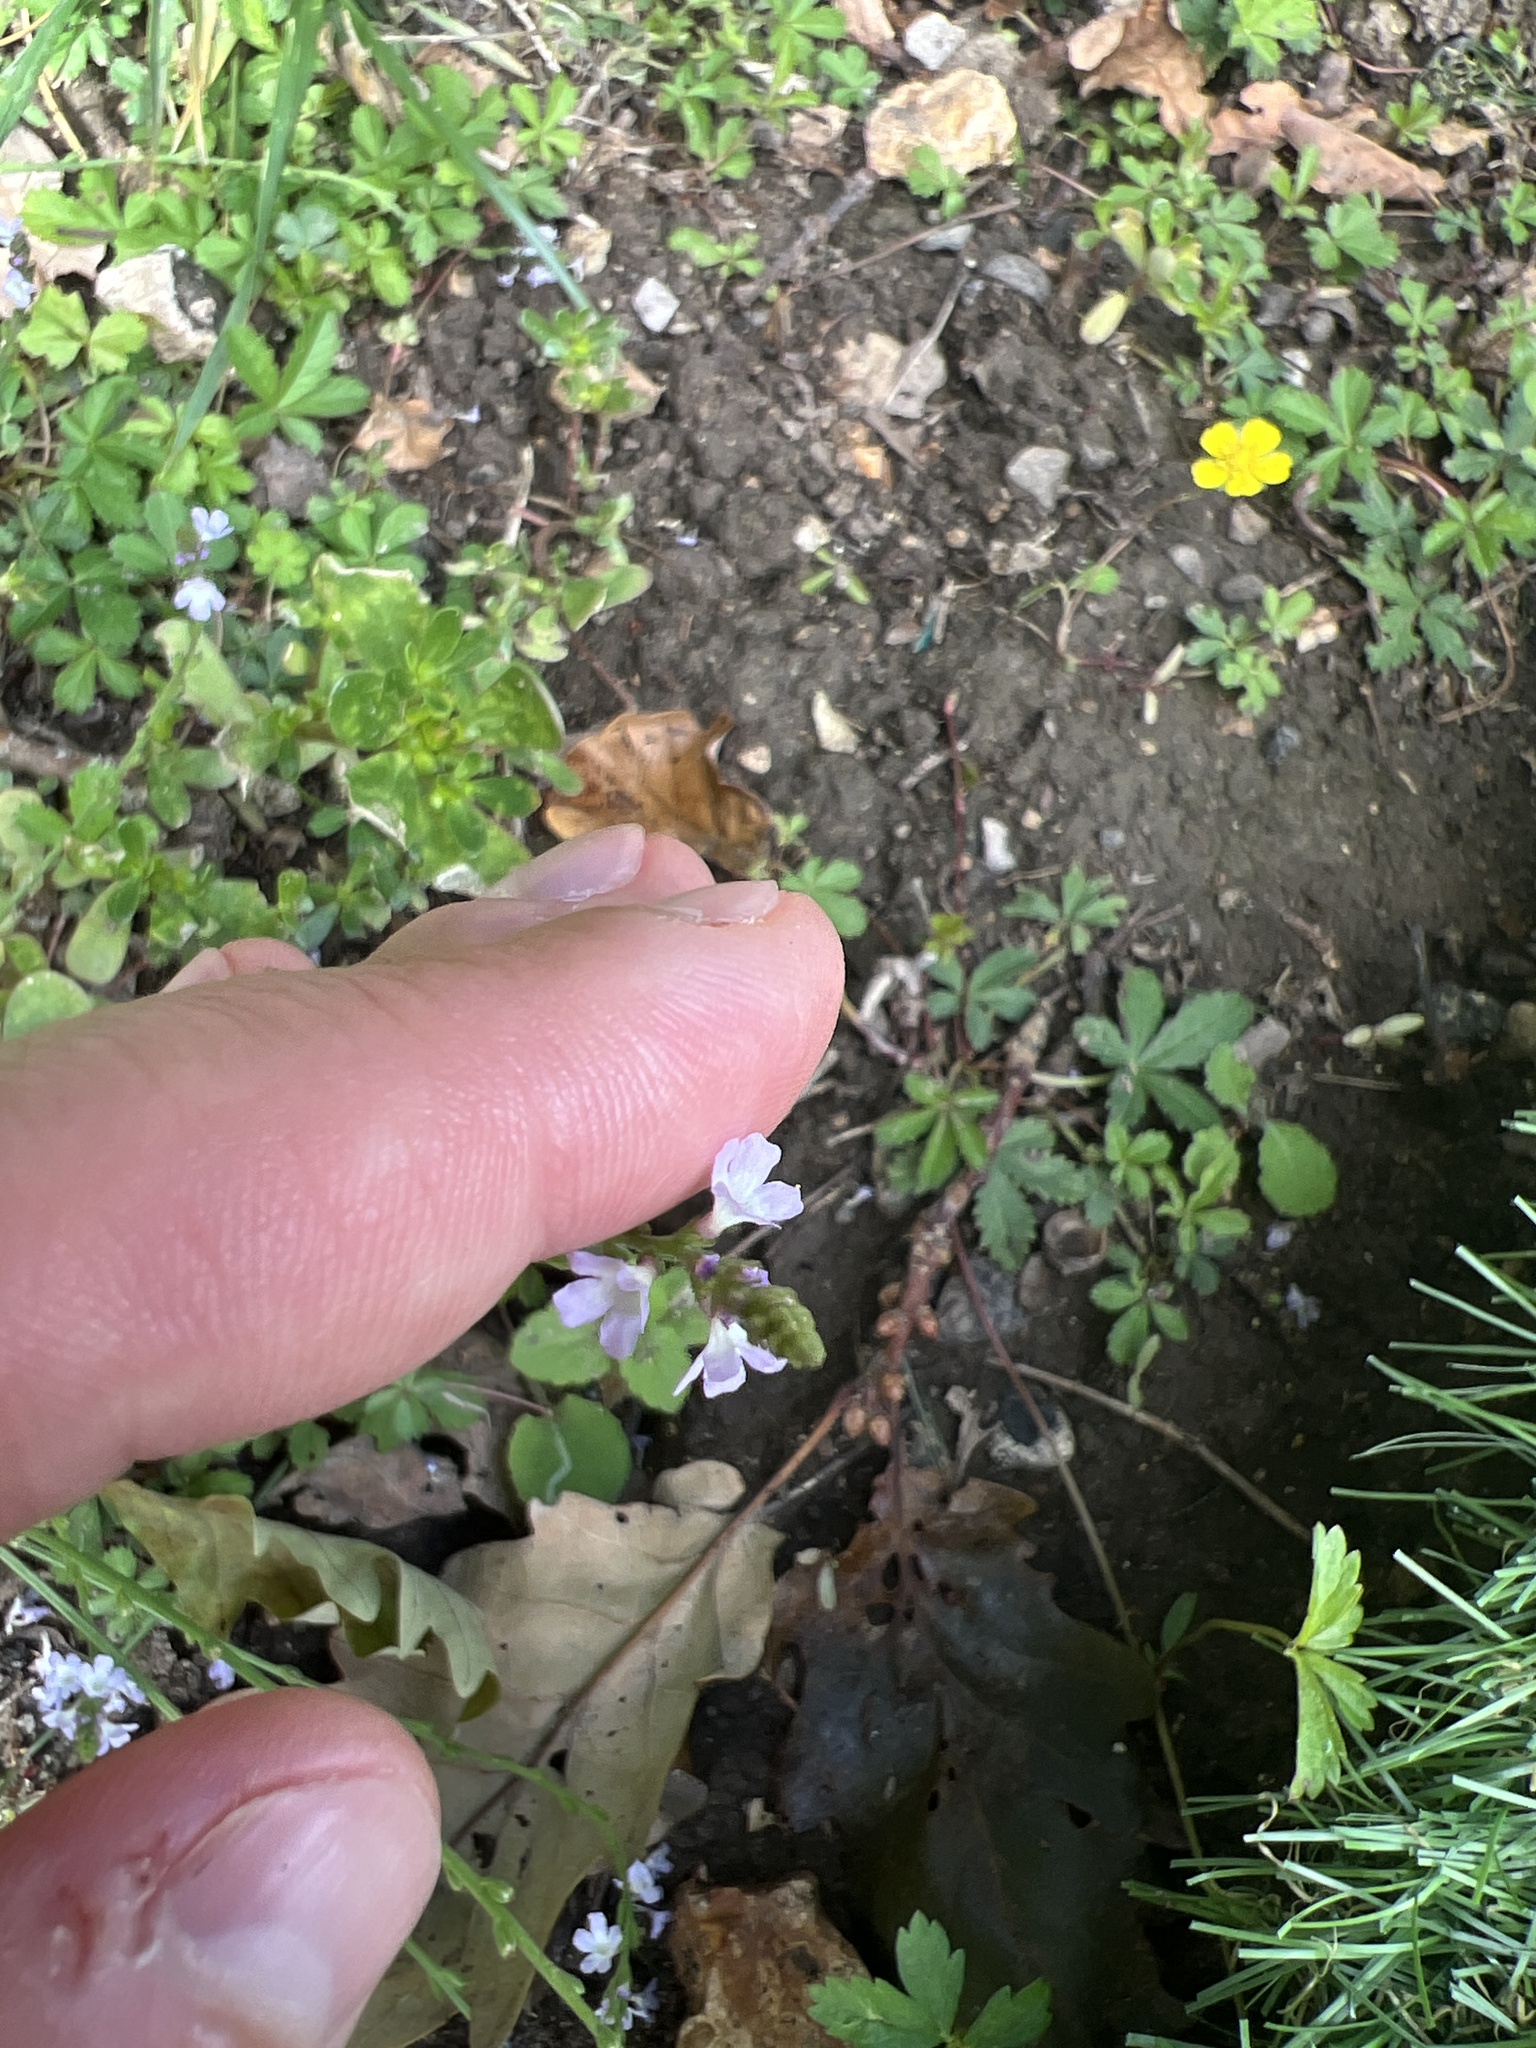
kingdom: Plantae
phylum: Tracheophyta
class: Magnoliopsida
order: Lamiales
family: Verbenaceae
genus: Verbena
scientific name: Verbena officinalis
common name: Vervain
